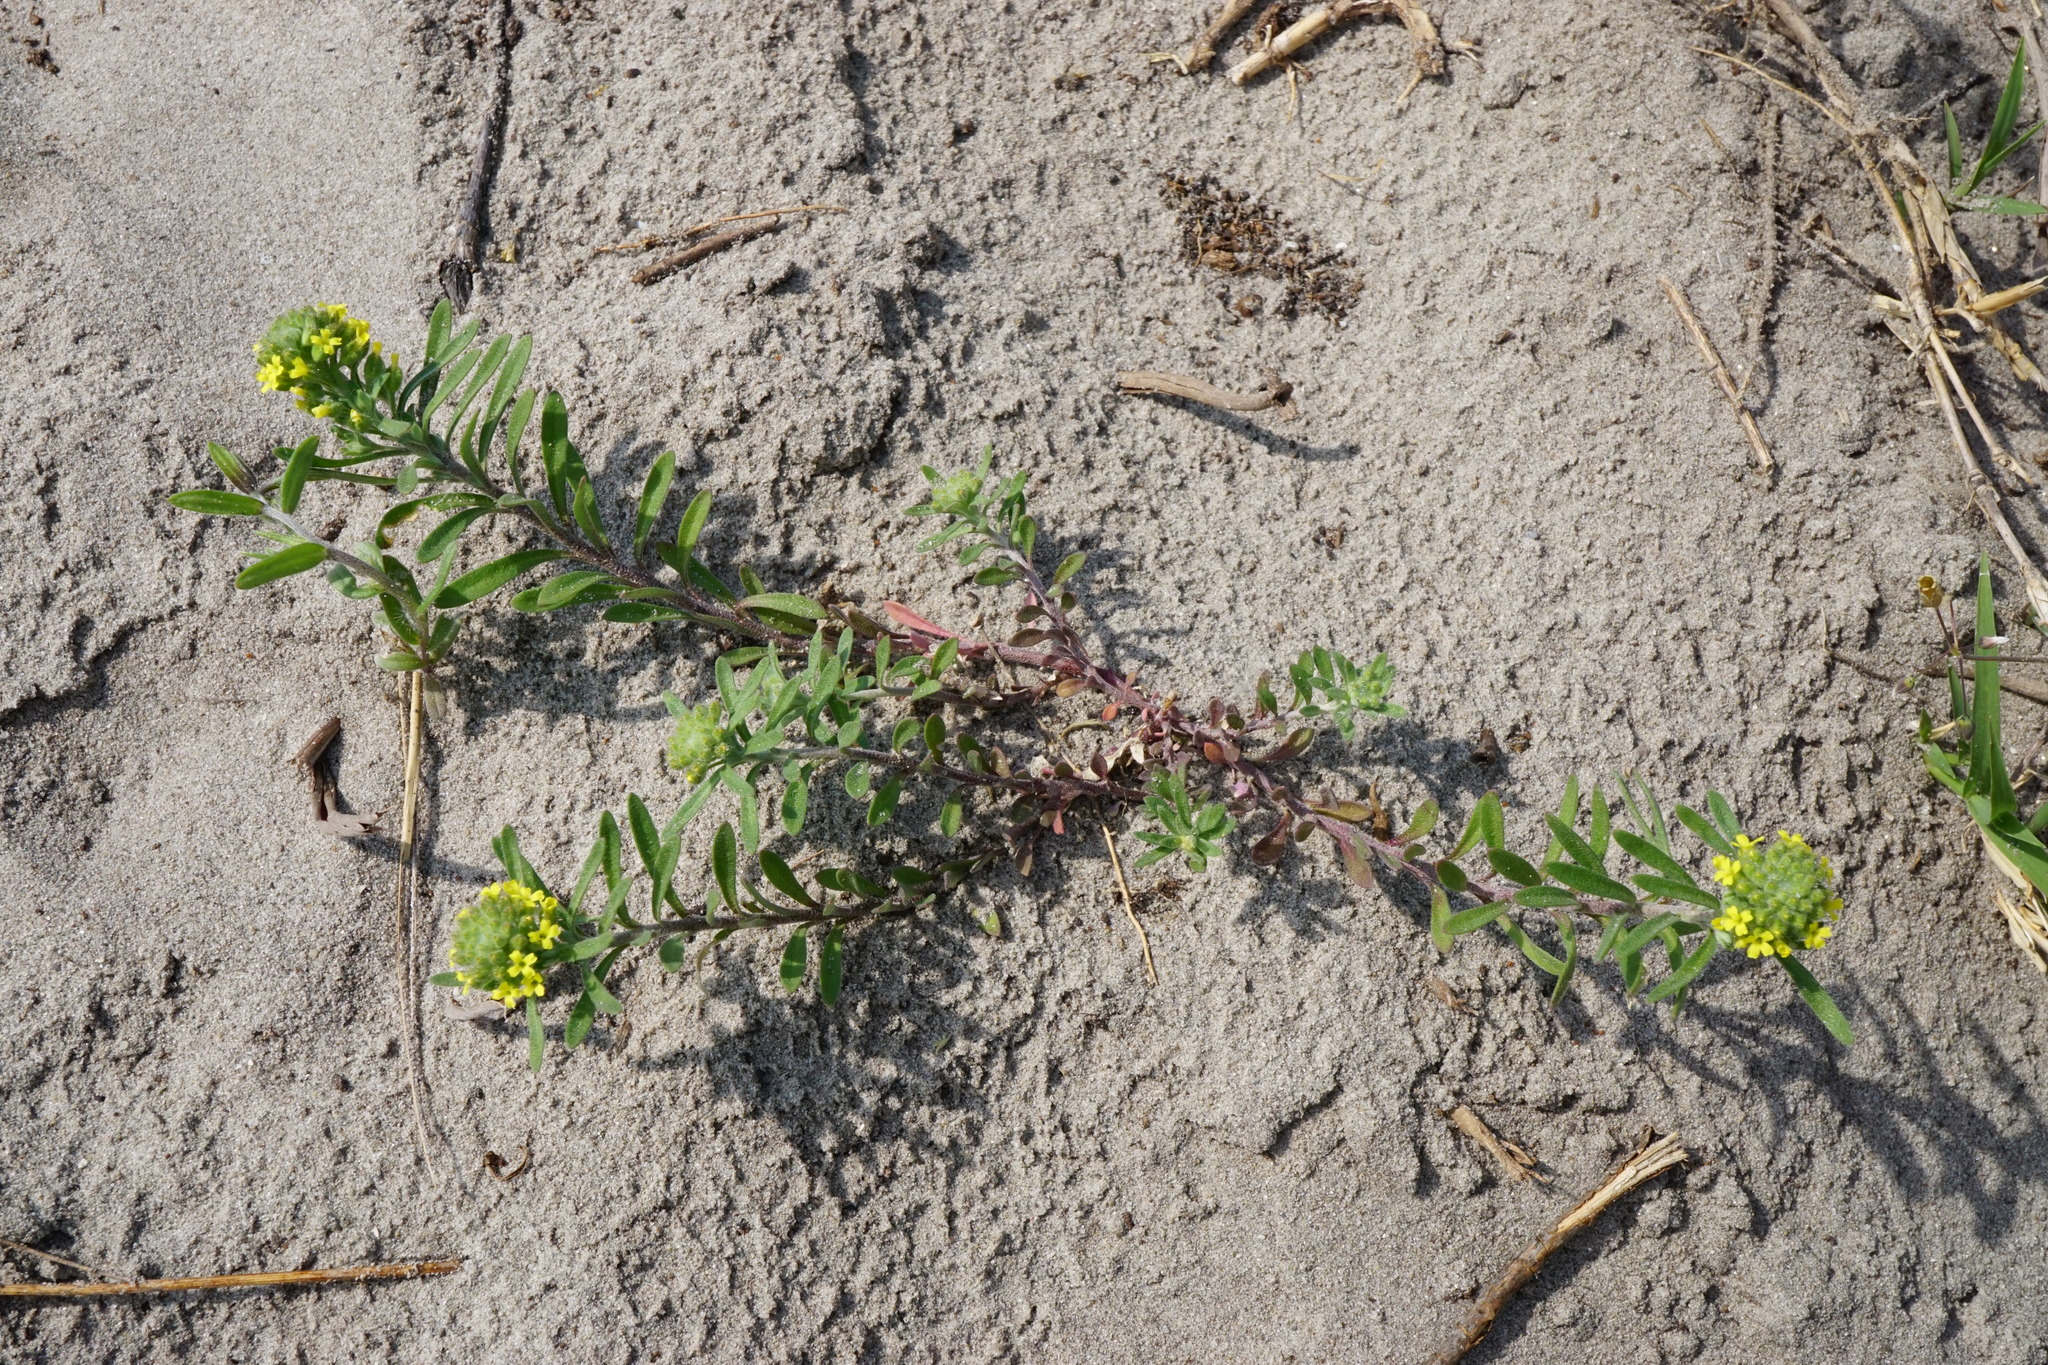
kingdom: Plantae
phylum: Tracheophyta
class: Magnoliopsida
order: Brassicales
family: Brassicaceae
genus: Alyssum
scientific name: Alyssum alyssoides
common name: Small alison
